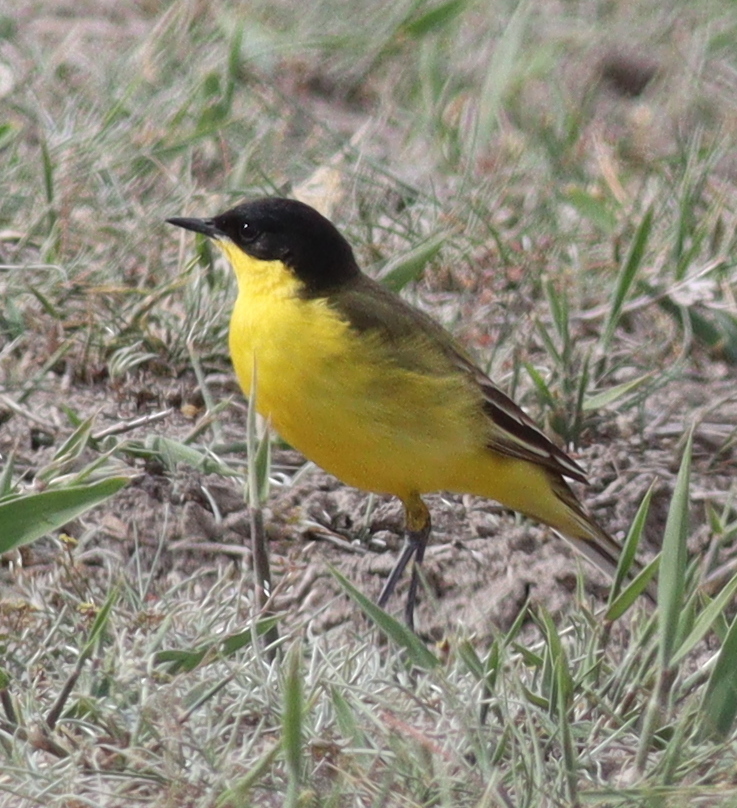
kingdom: Animalia
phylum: Chordata
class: Aves
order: Passeriformes
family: Motacillidae
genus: Motacilla
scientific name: Motacilla flava
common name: Western yellow wagtail
